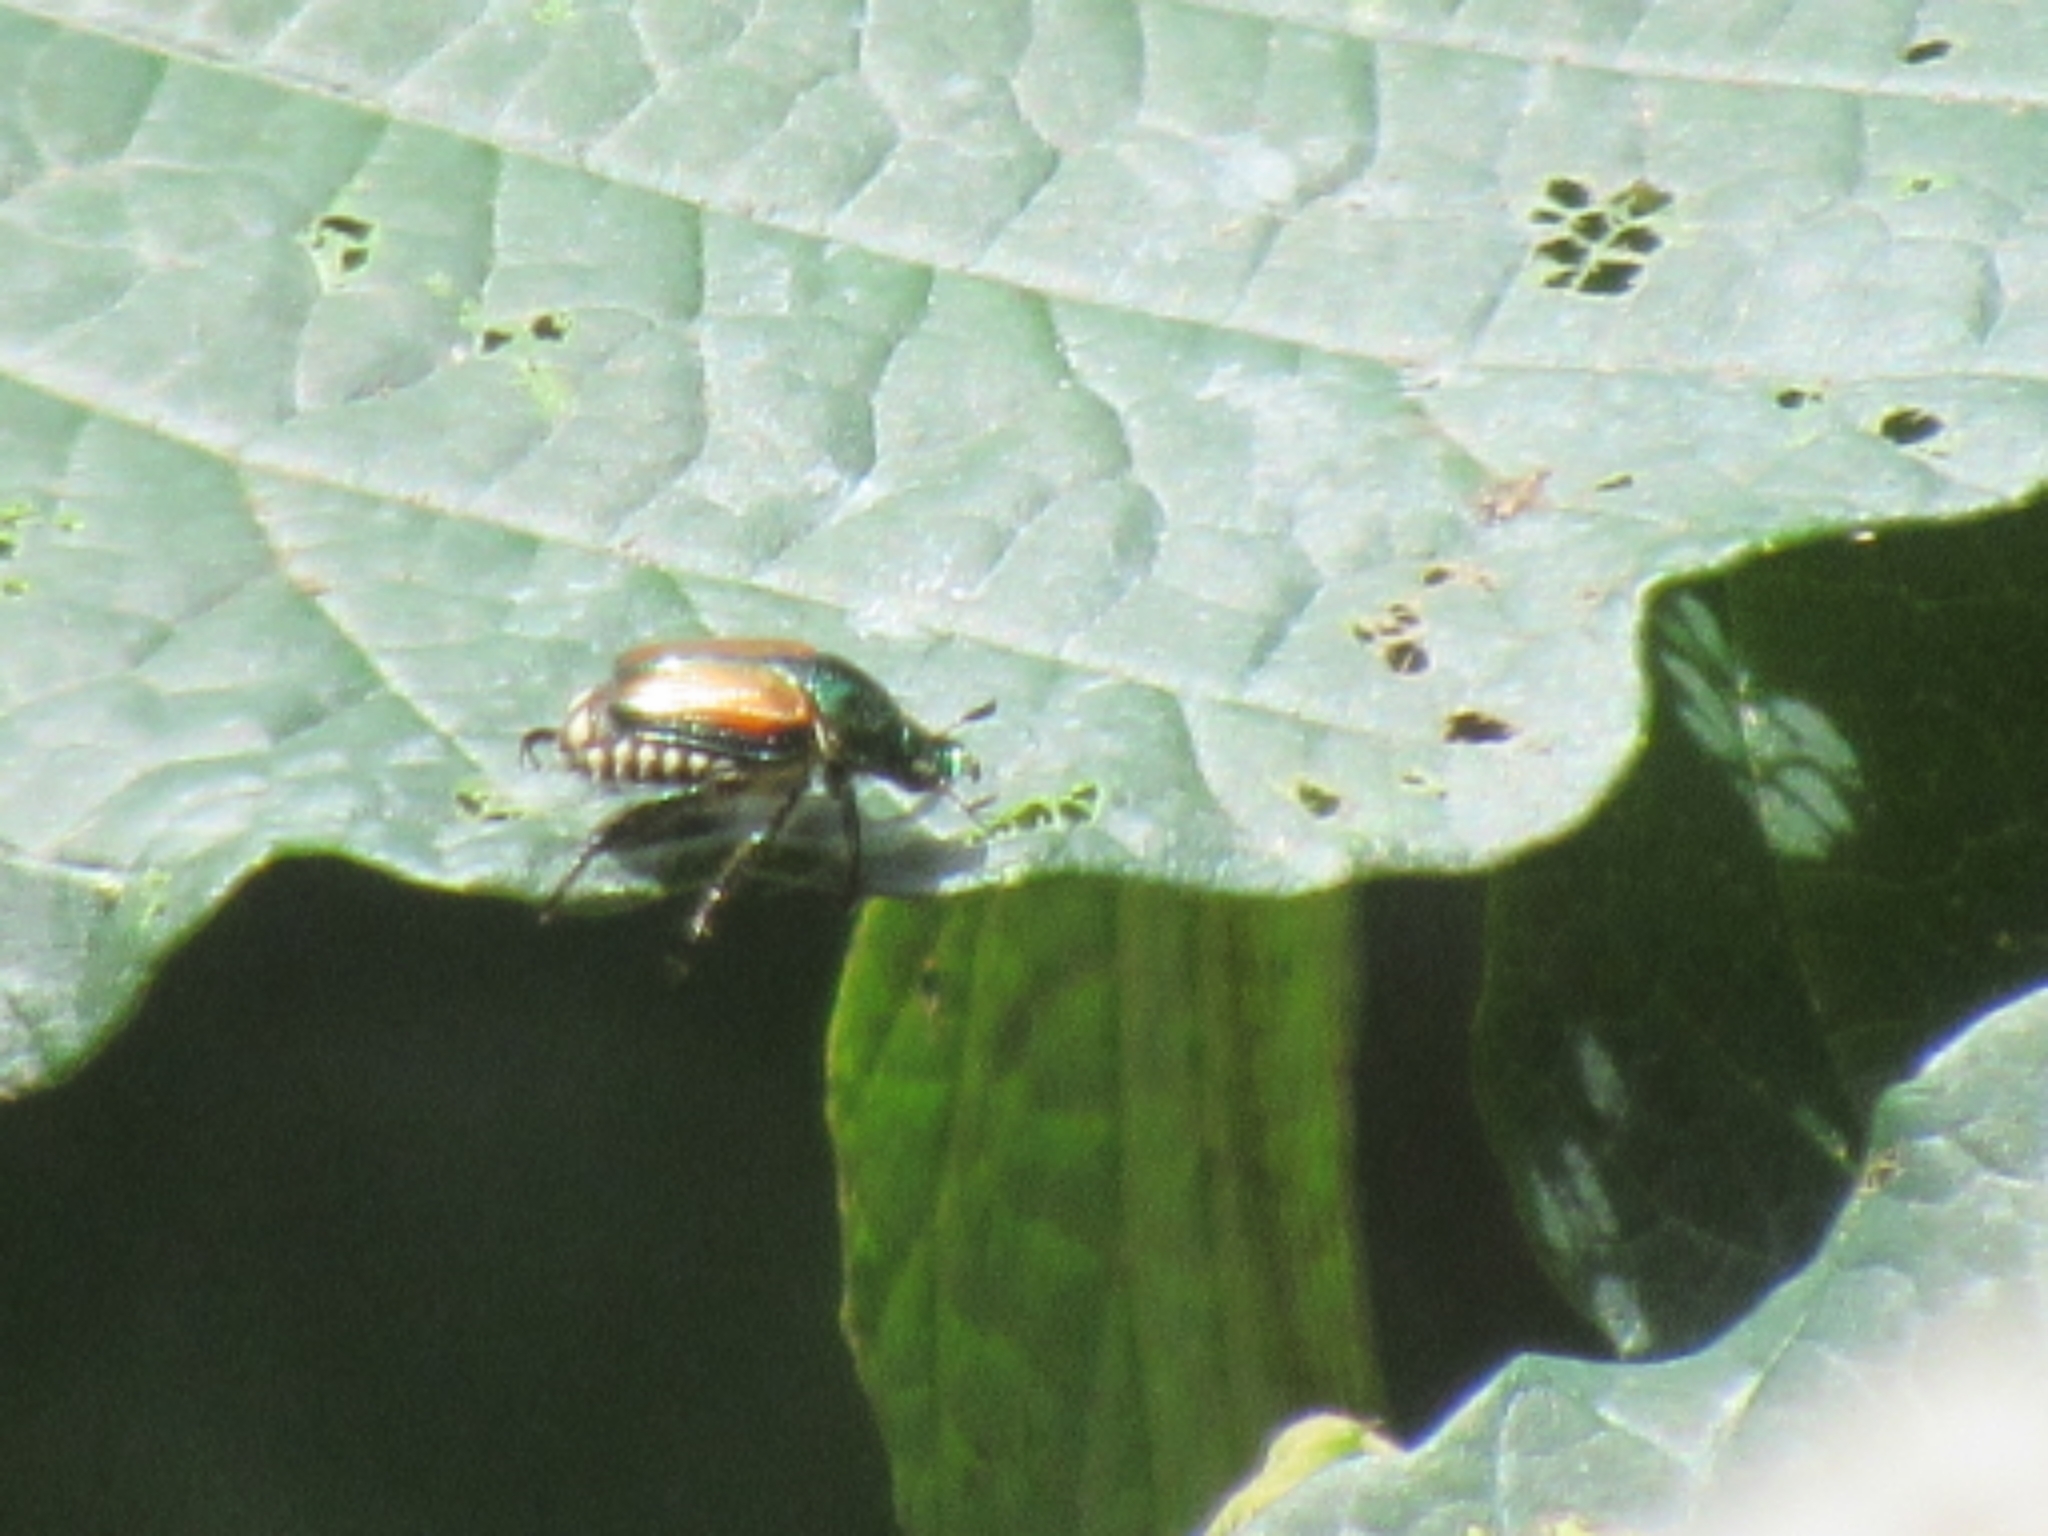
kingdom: Animalia
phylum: Arthropoda
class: Insecta
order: Coleoptera
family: Scarabaeidae
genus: Popillia
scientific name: Popillia japonica
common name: Japanese beetle
